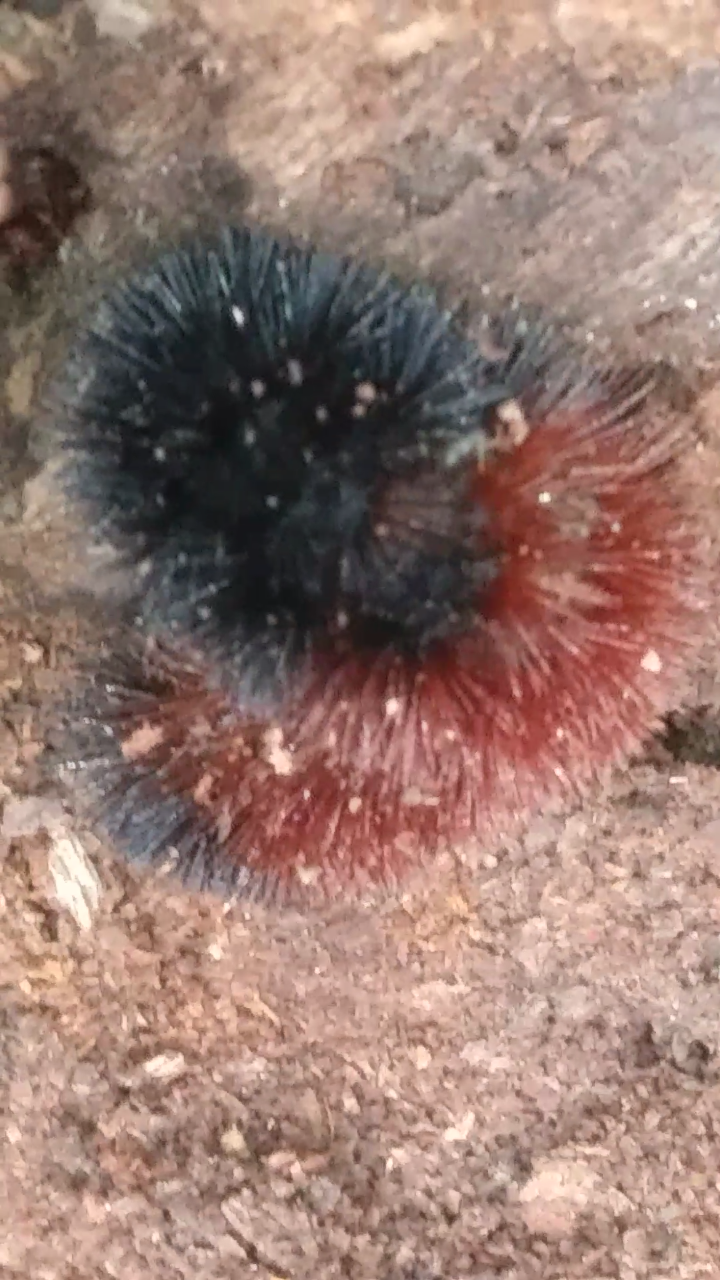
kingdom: Animalia
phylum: Arthropoda
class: Insecta
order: Lepidoptera
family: Erebidae
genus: Pyrrharctia
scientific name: Pyrrharctia isabella
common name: Isabella tiger moth
